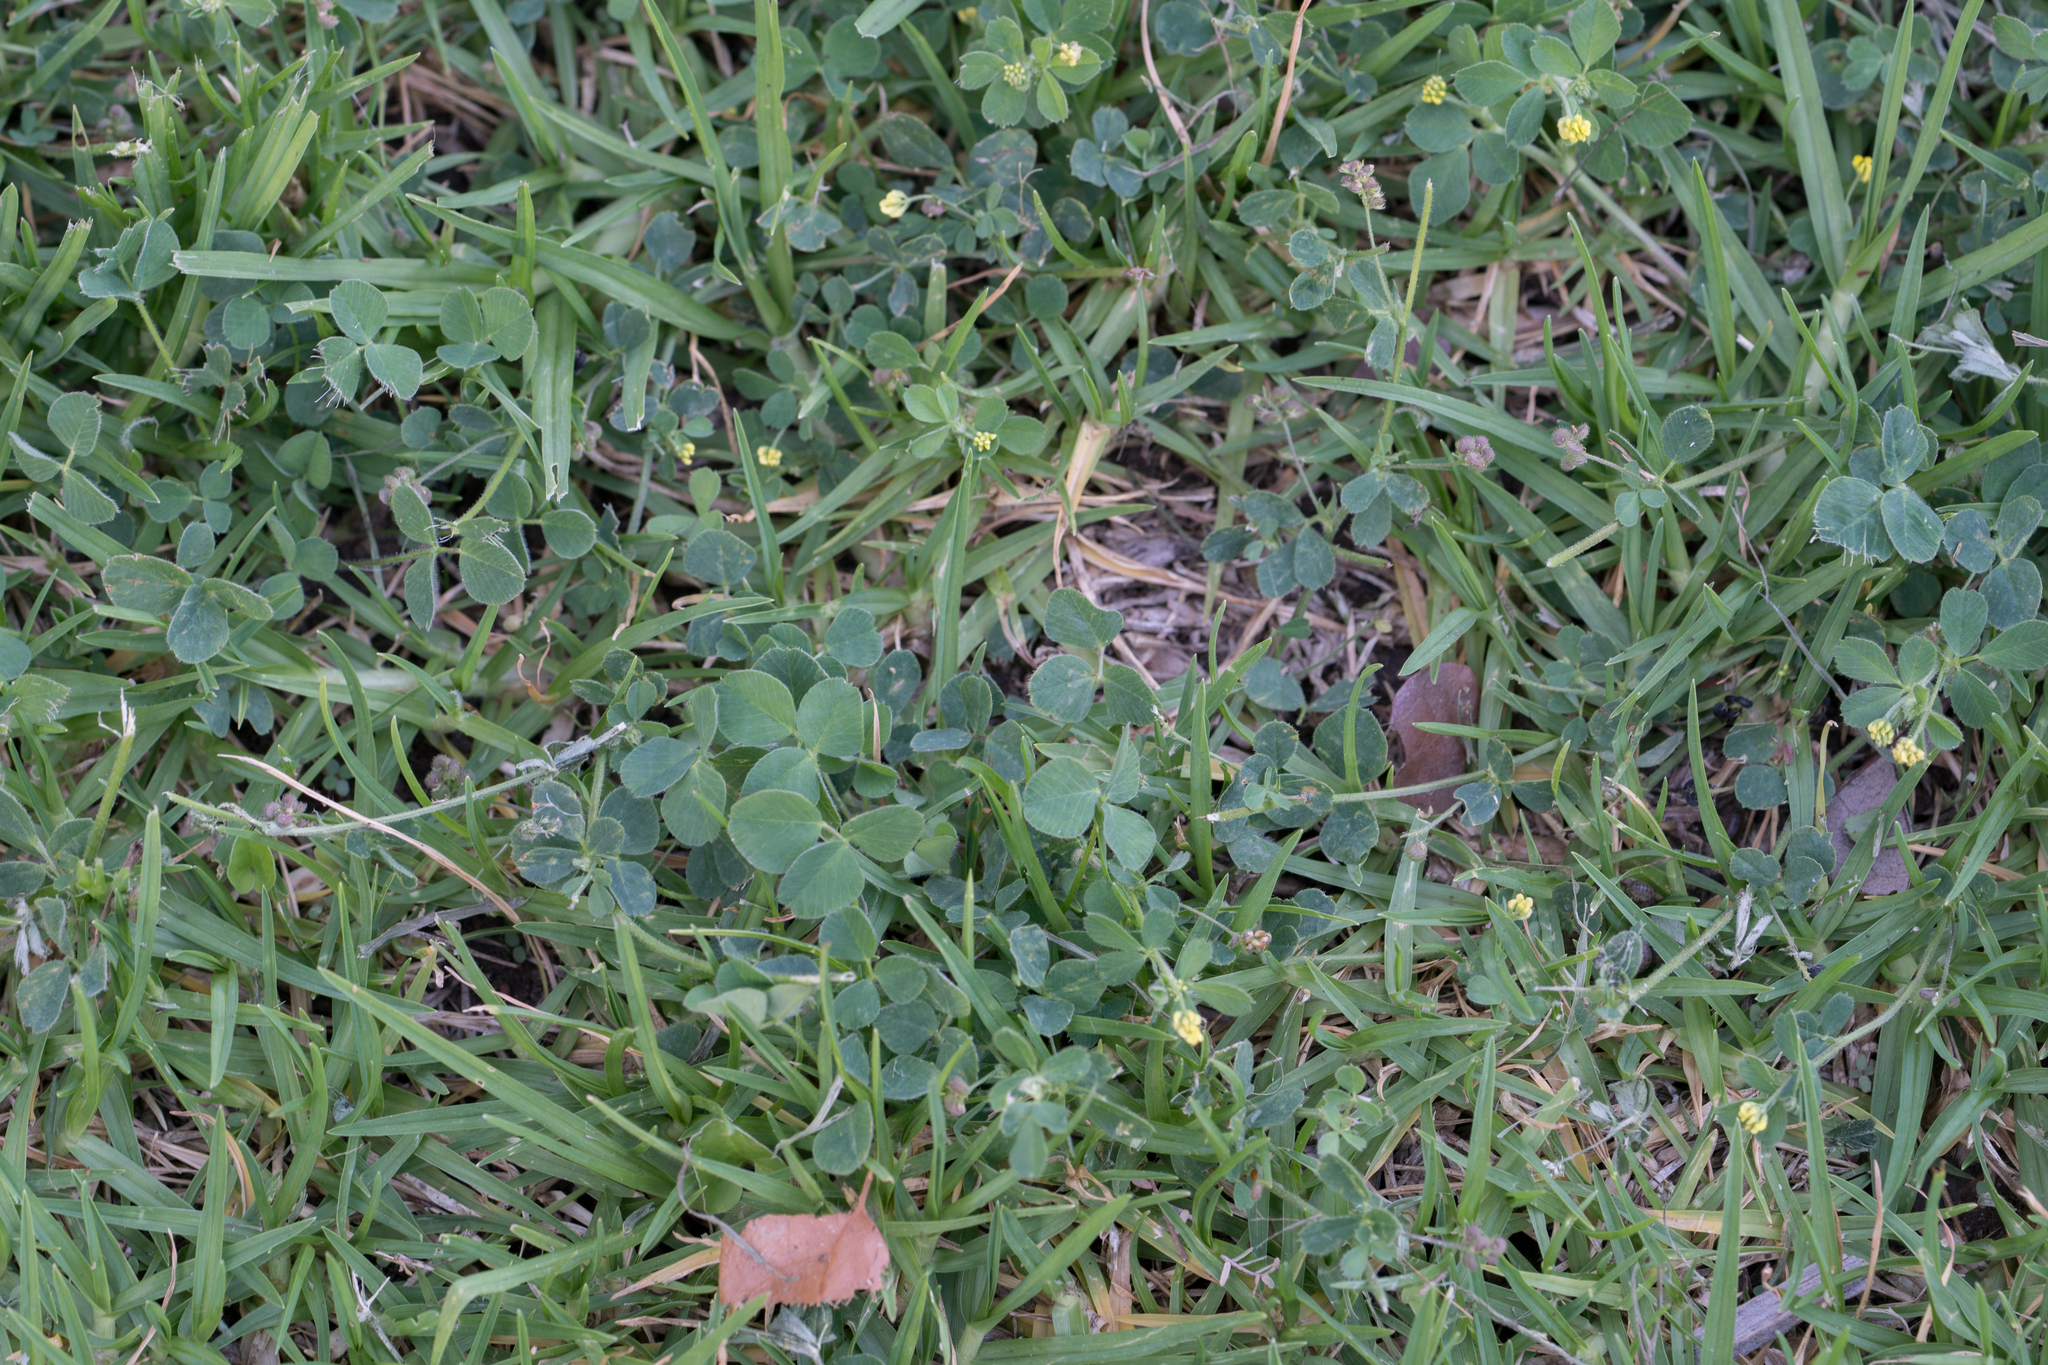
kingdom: Plantae
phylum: Tracheophyta
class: Magnoliopsida
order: Fabales
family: Fabaceae
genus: Medicago
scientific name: Medicago lupulina
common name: Black medick
